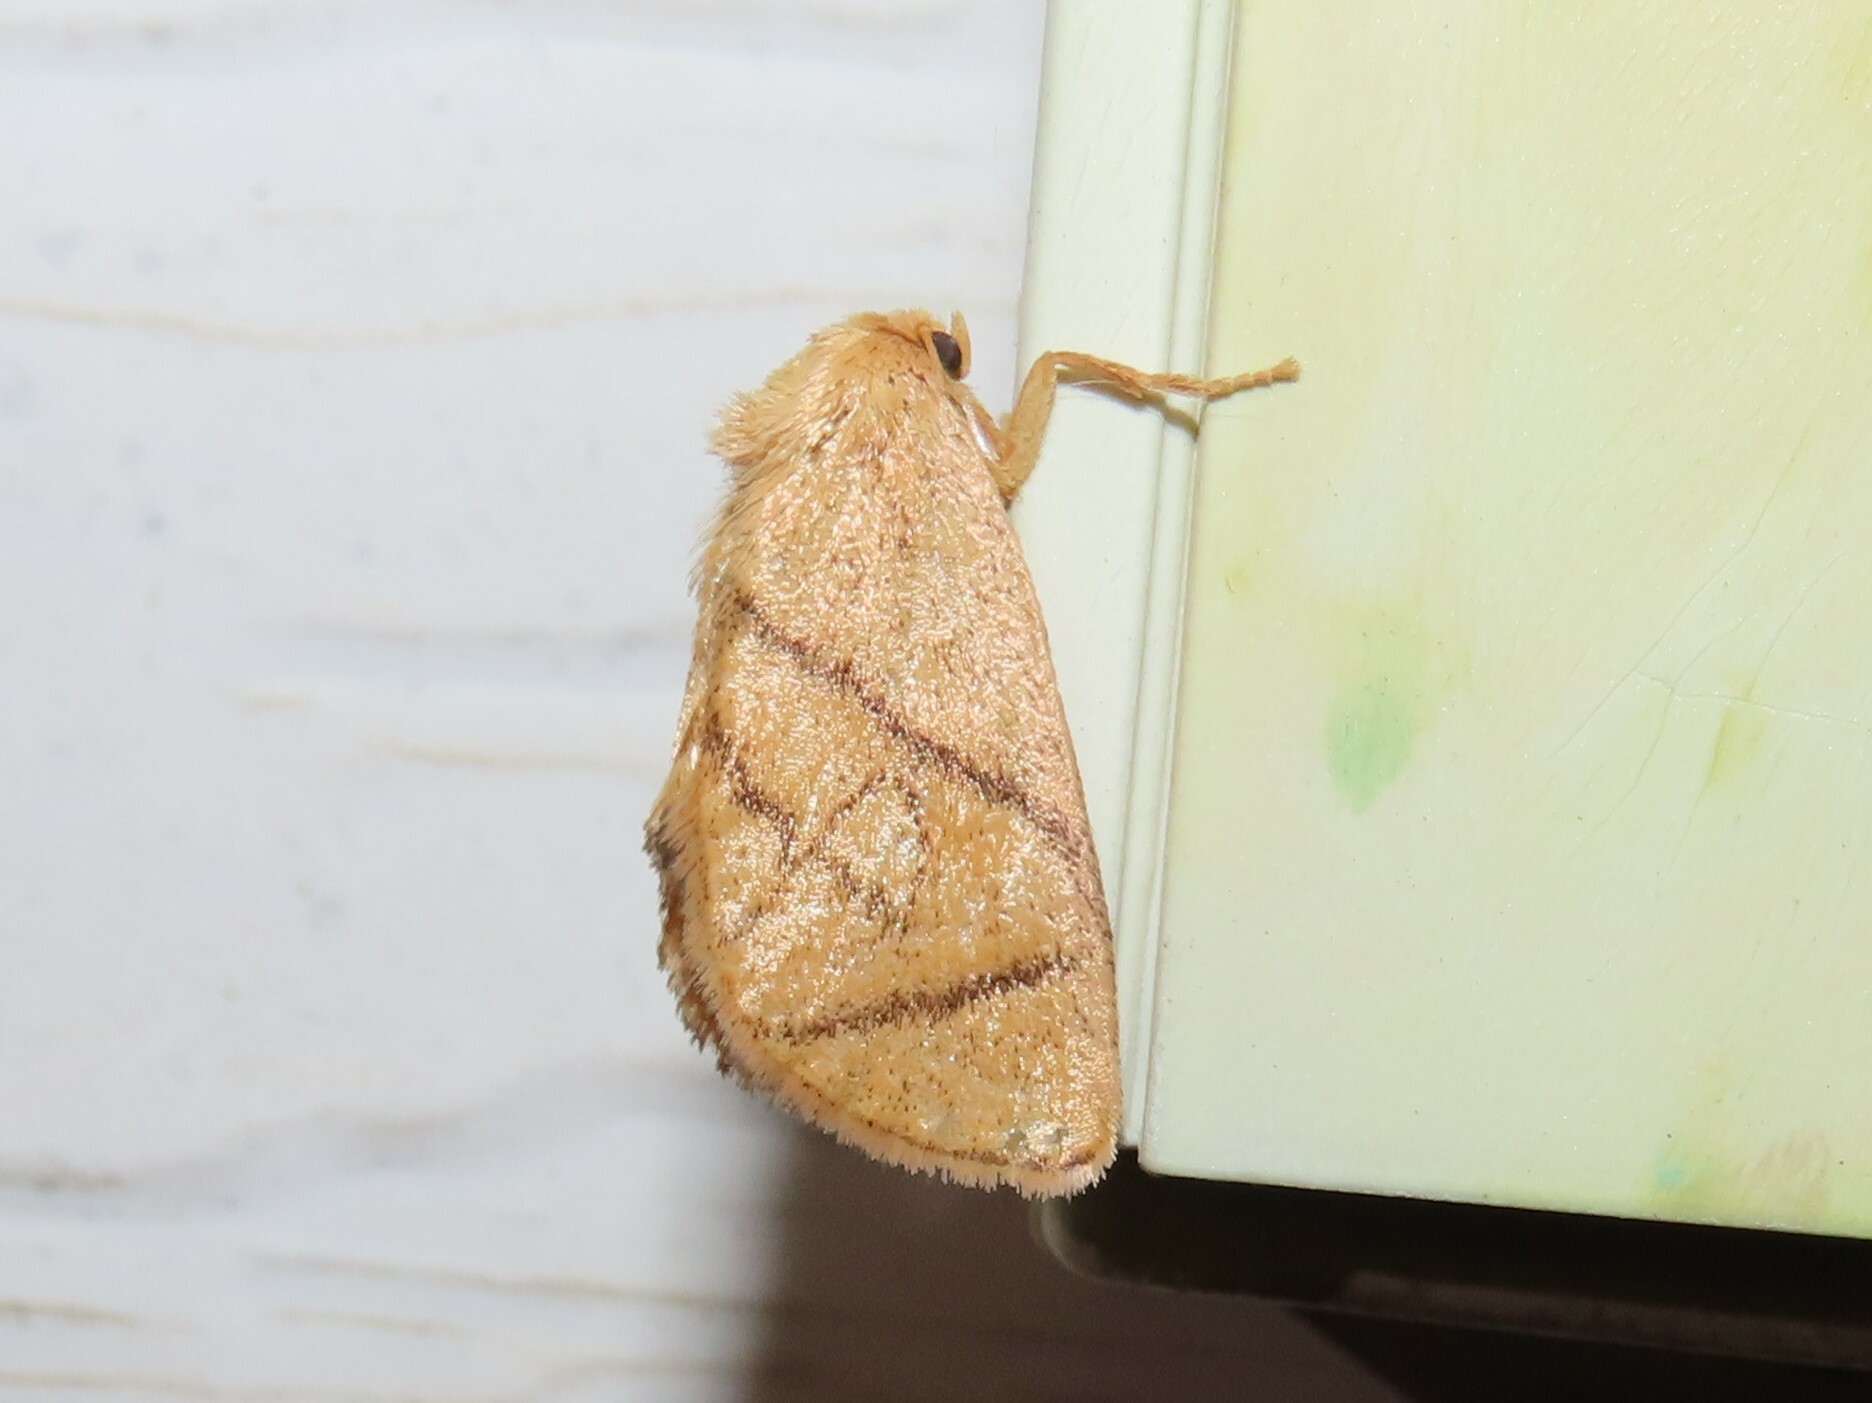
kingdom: Animalia
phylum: Arthropoda
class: Insecta
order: Lepidoptera
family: Limacodidae
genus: Apoda
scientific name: Apoda y-inversa
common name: Yellow-collared slug moth
